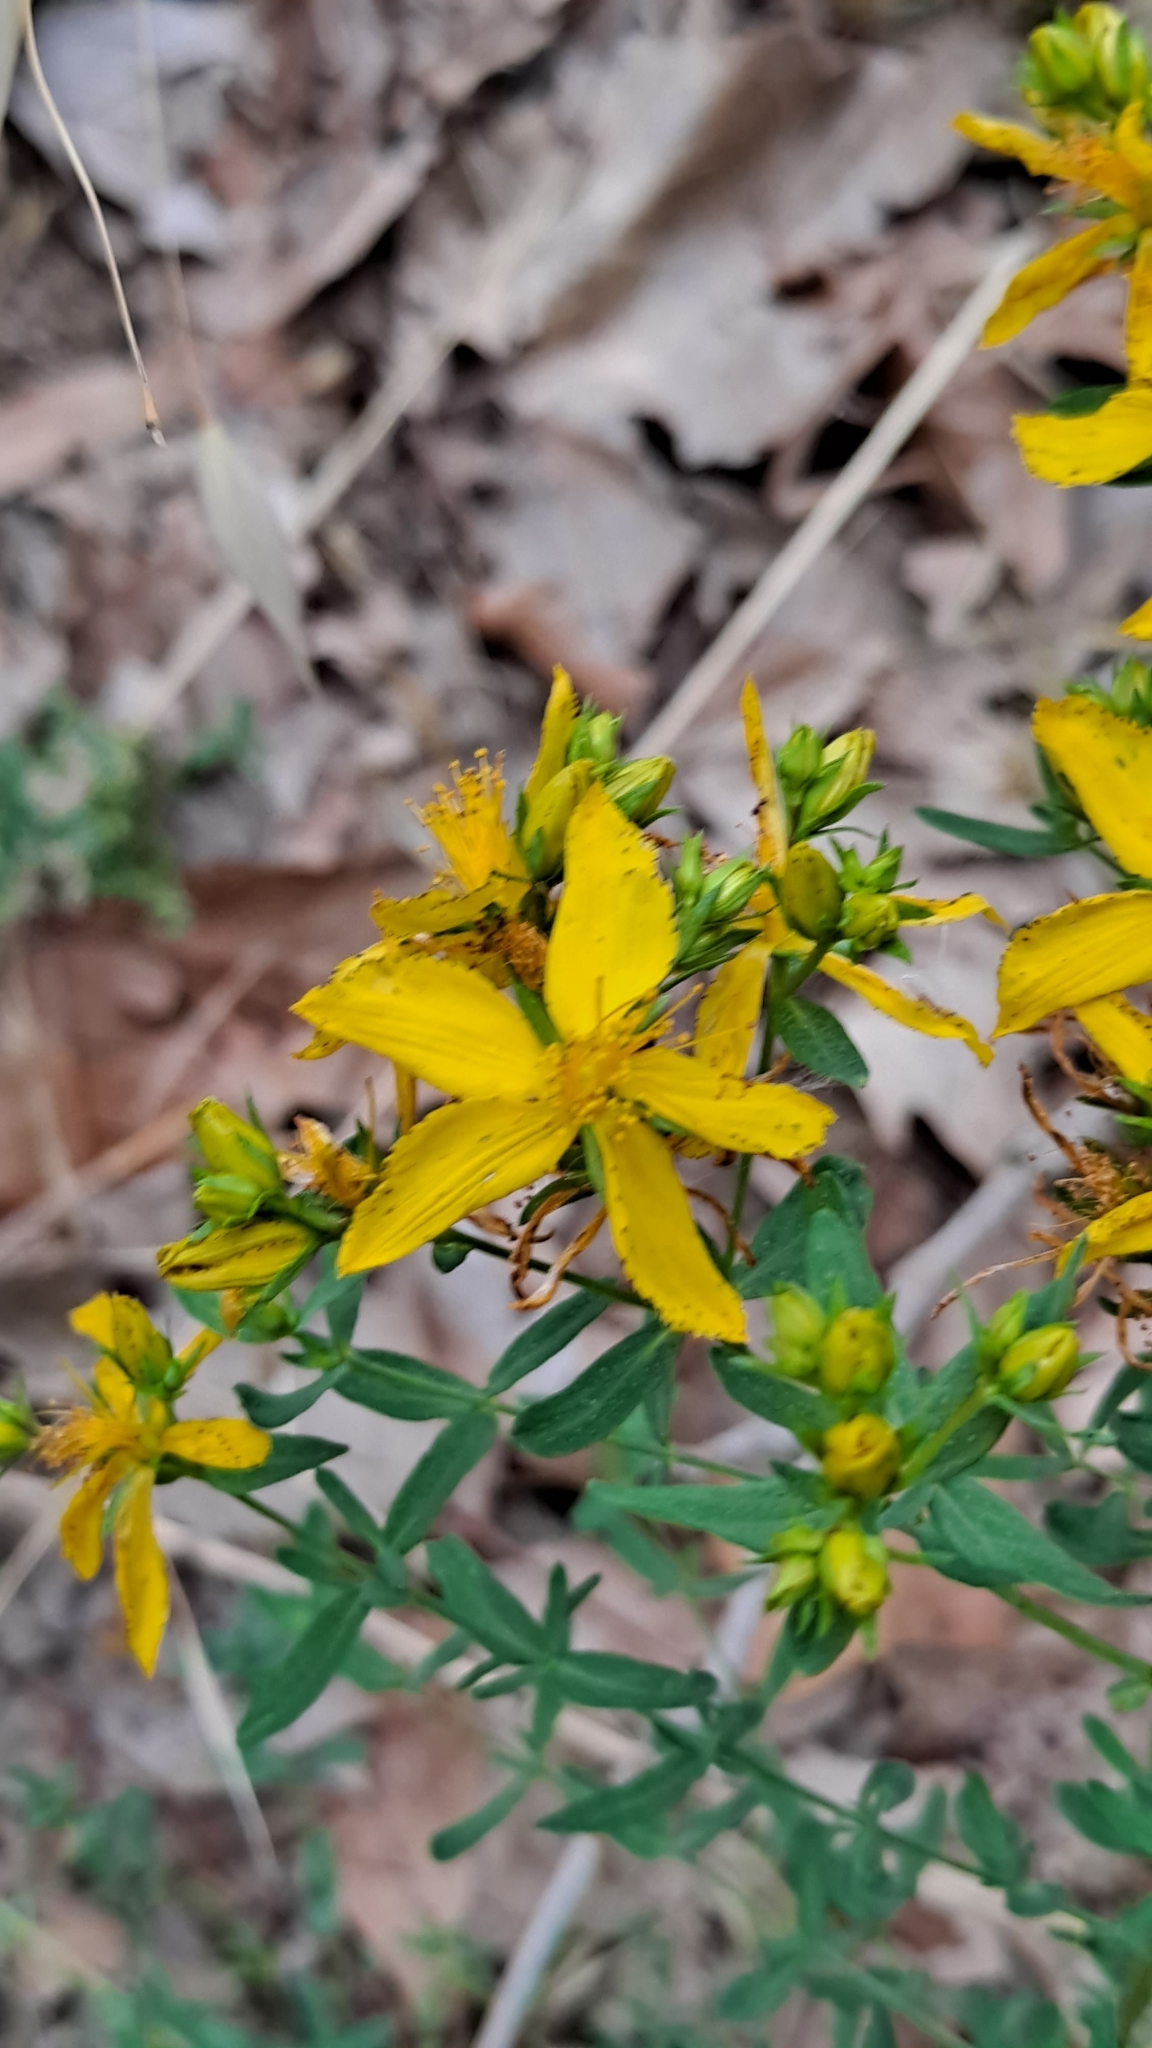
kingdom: Plantae
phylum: Tracheophyta
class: Magnoliopsida
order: Malpighiales
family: Hypericaceae
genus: Hypericum
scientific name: Hypericum perforatum
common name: Common st. johnswort
